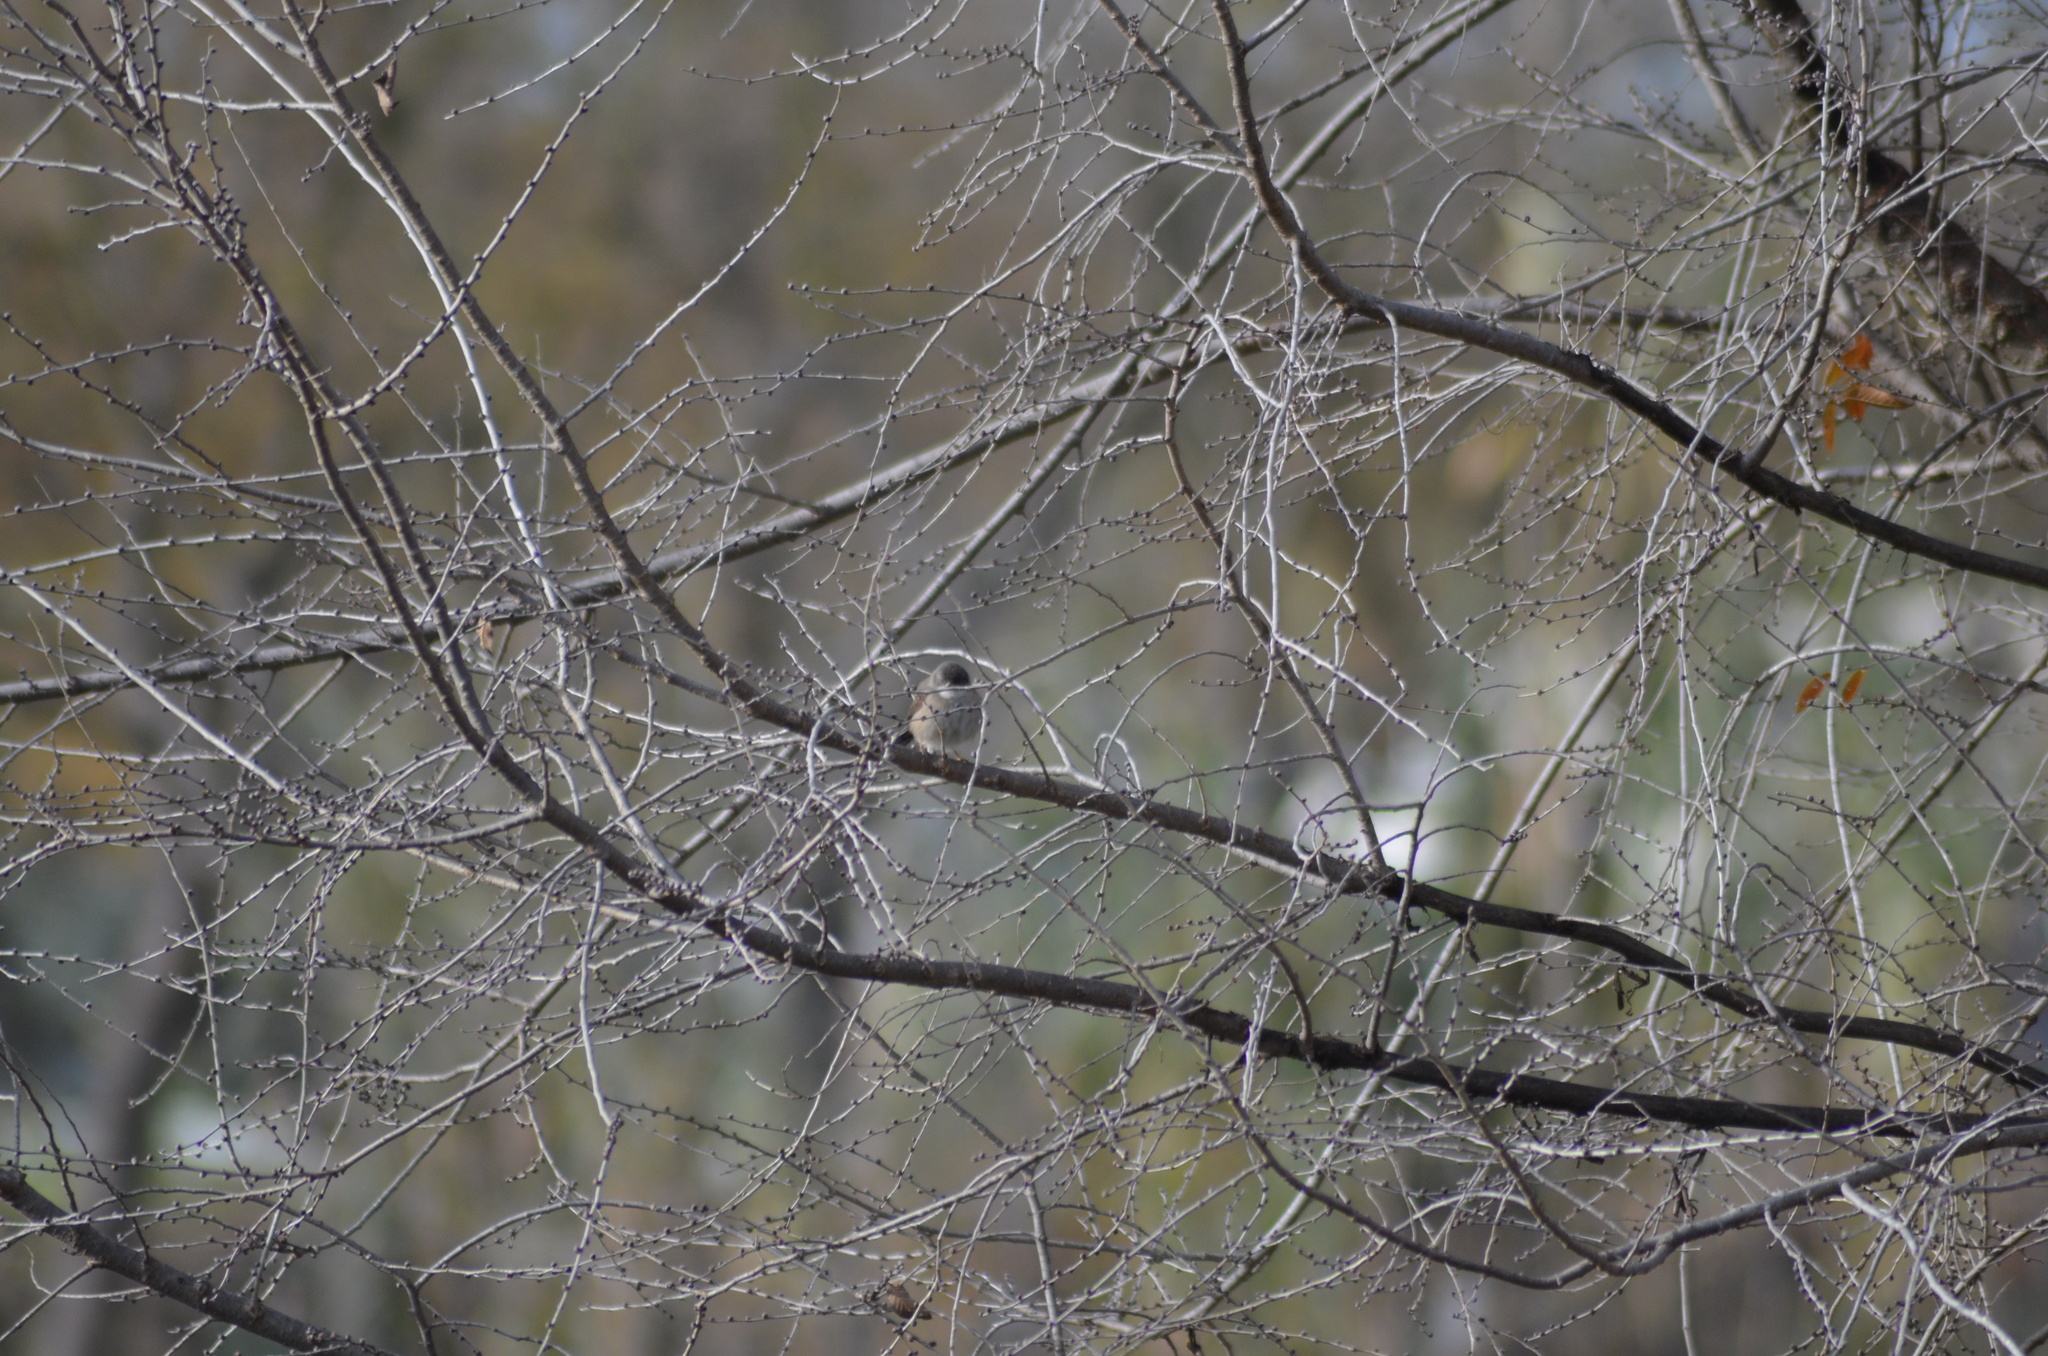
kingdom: Animalia
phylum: Chordata
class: Aves
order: Passeriformes
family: Sylviidae
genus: Curruca
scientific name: Curruca melanocephala
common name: Sardinian warbler
